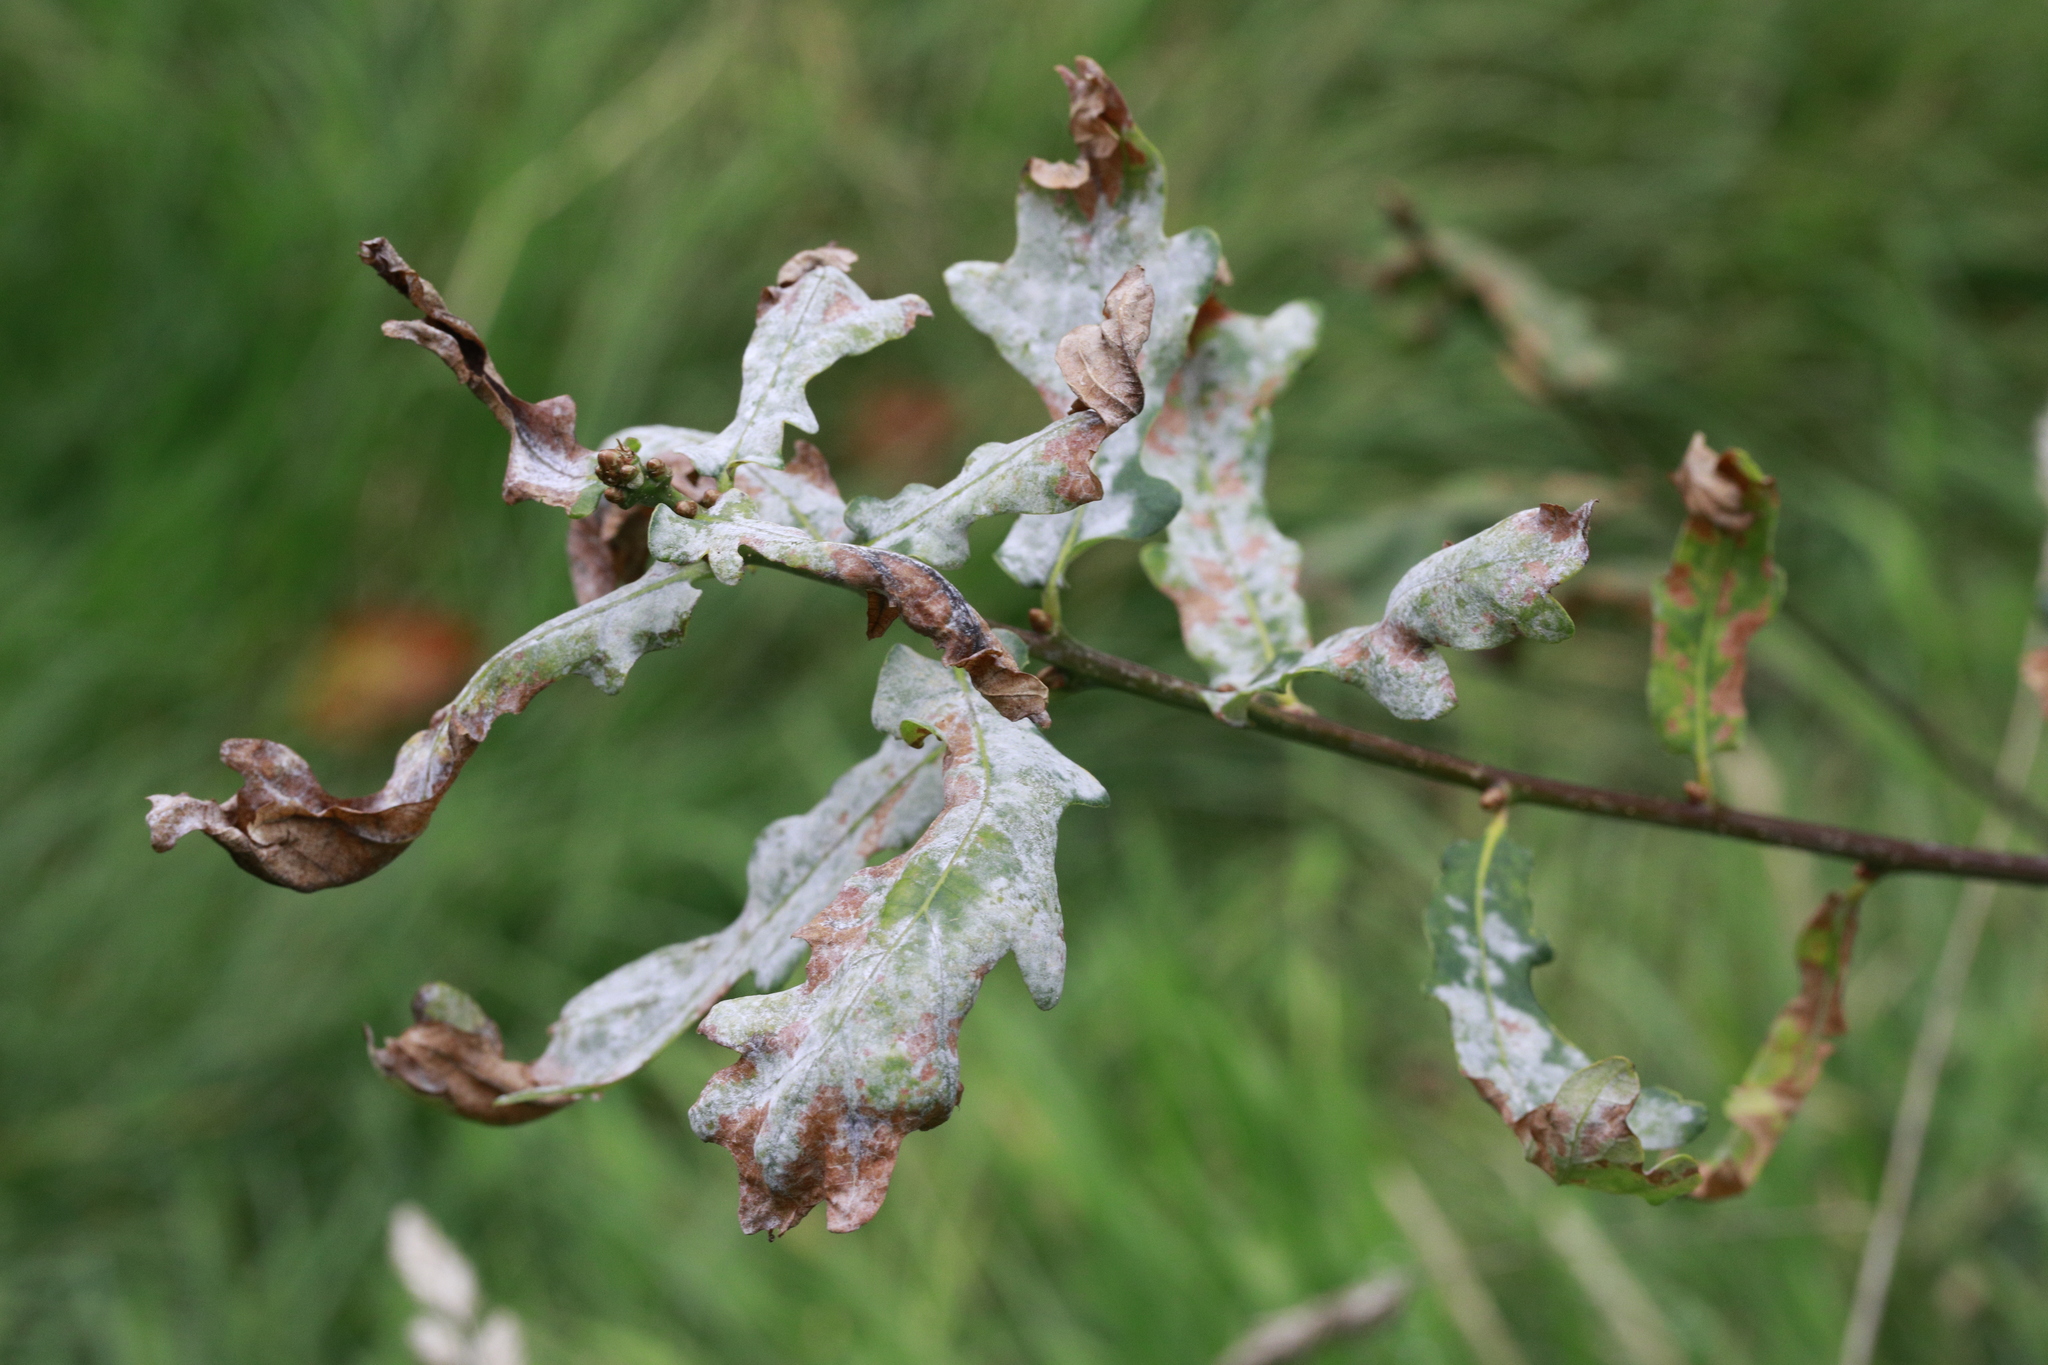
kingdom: Fungi
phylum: Ascomycota
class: Leotiomycetes
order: Helotiales
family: Erysiphaceae
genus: Erysiphe
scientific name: Erysiphe alphitoides
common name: Oak mildew
